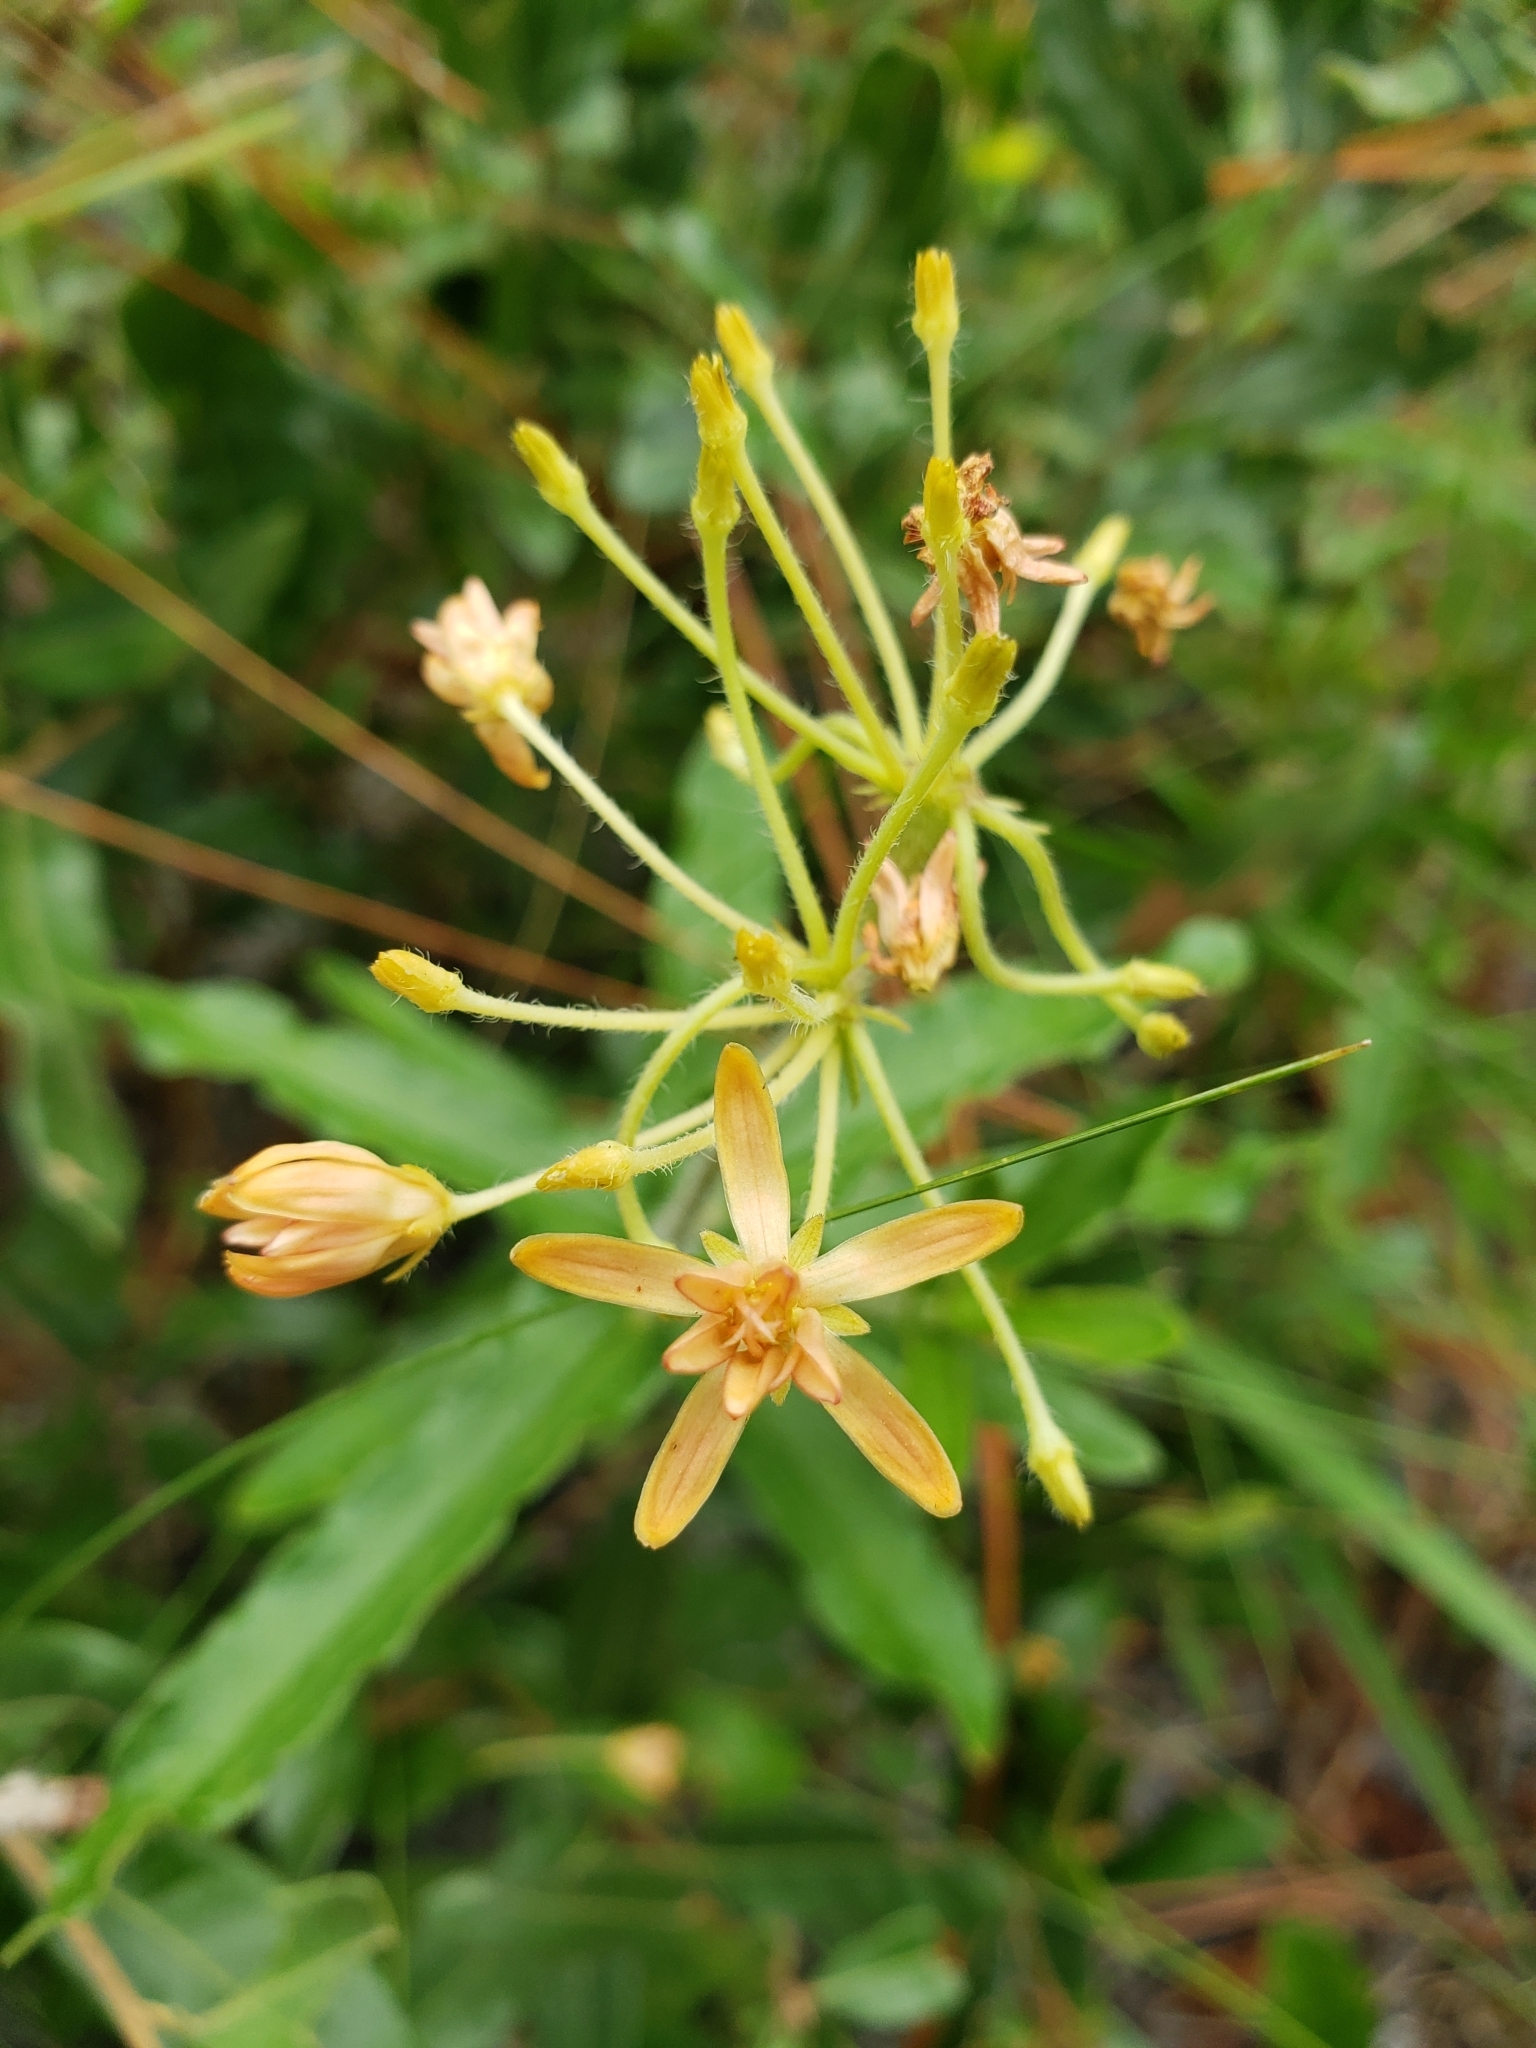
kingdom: Plantae
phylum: Tracheophyta
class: Magnoliopsida
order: Gentianales
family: Apocynaceae
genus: Asclepias
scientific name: Asclepias tuberosa
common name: Butterfly milkweed
